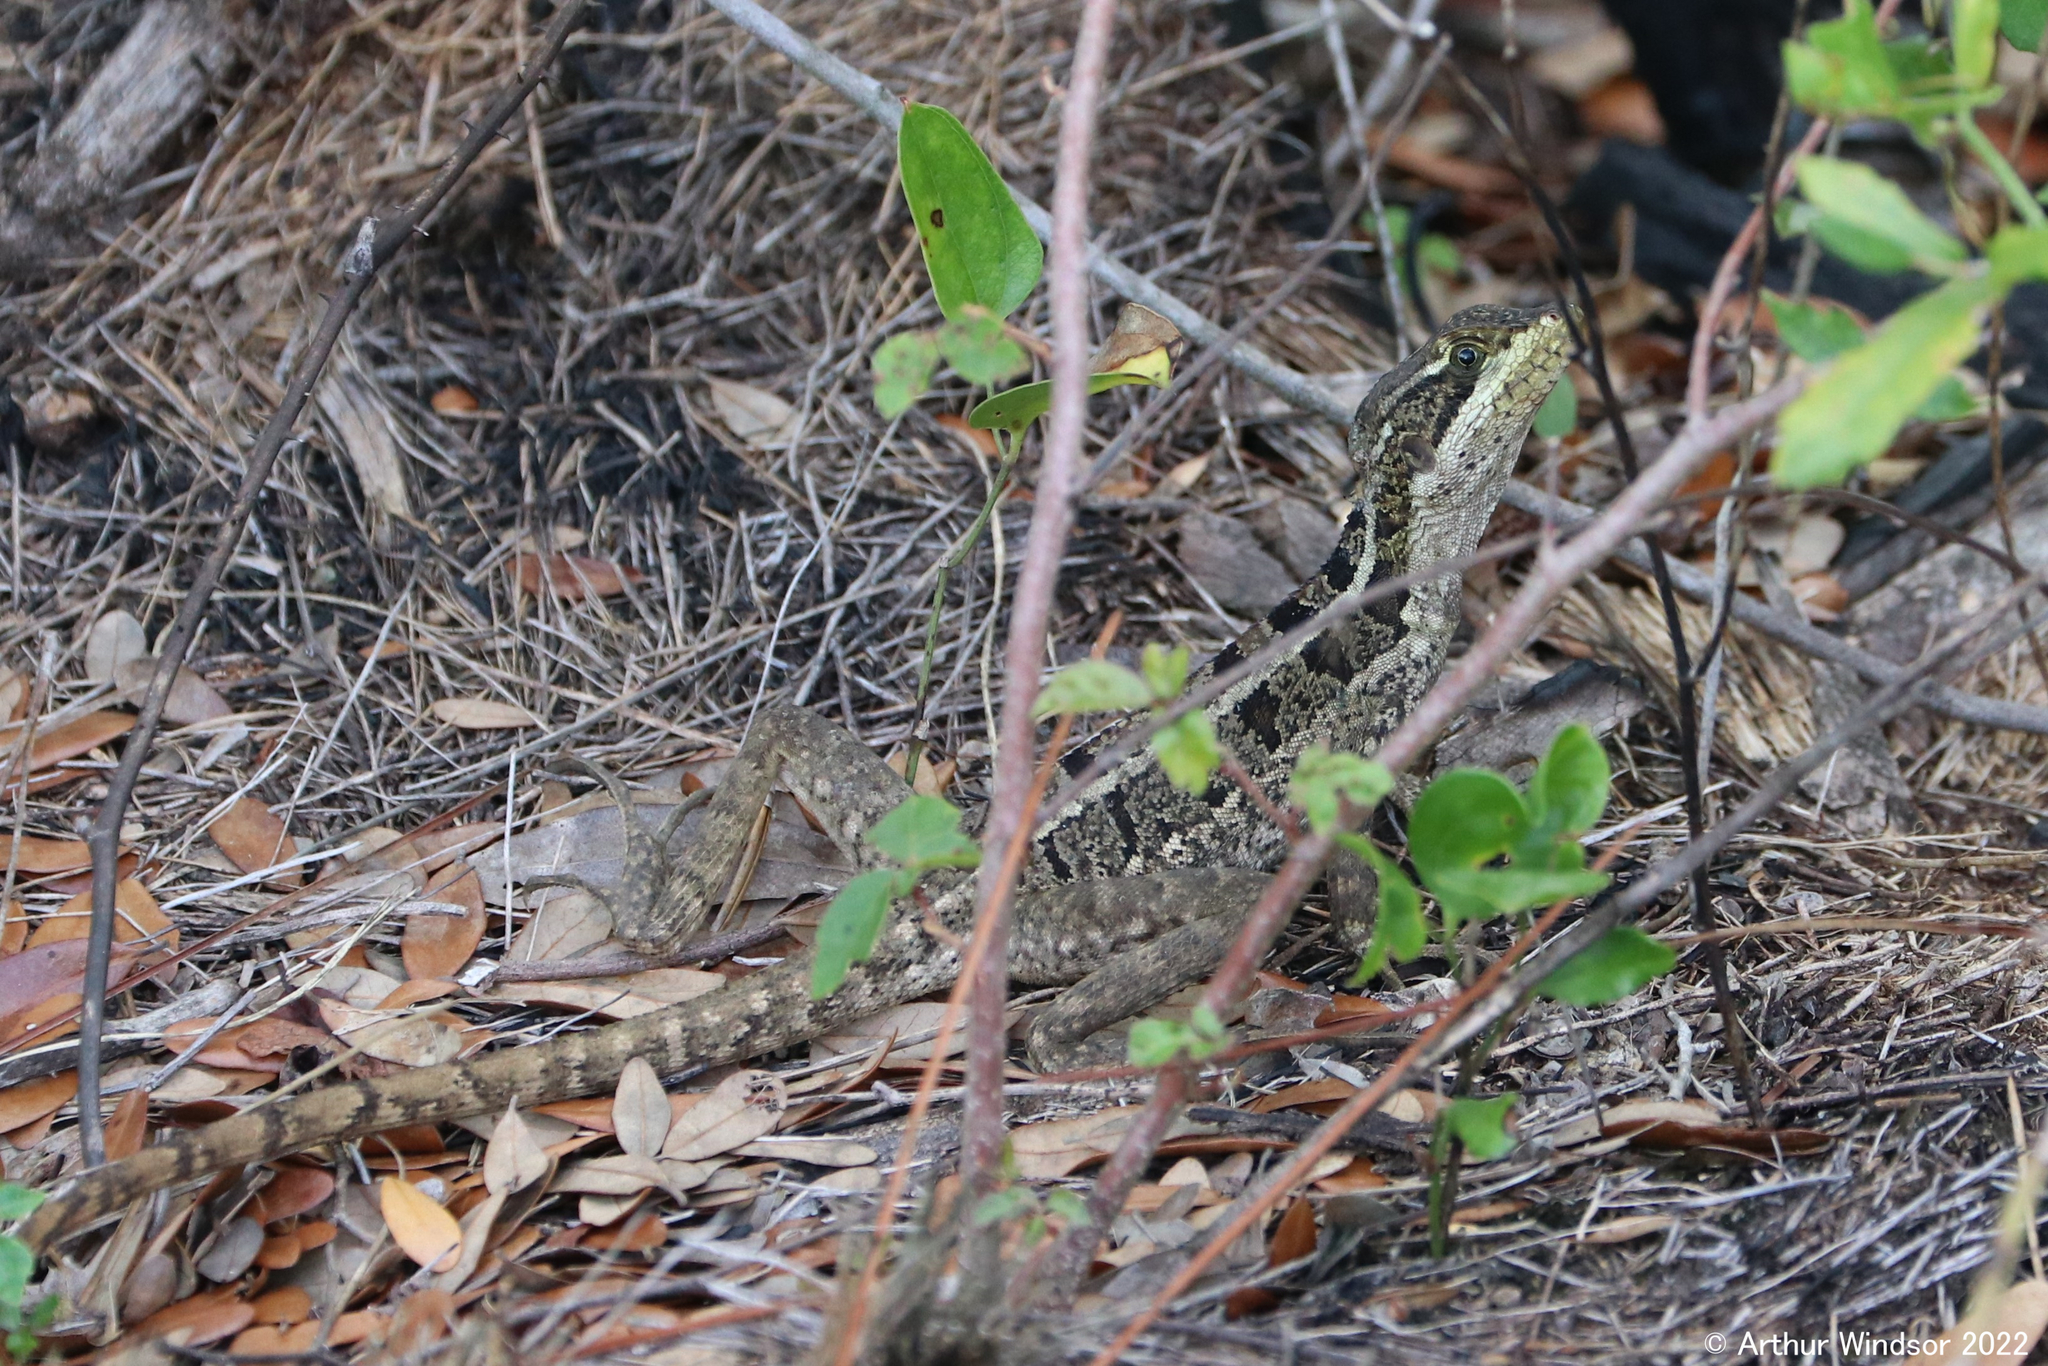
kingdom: Animalia
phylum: Chordata
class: Squamata
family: Corytophanidae
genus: Basiliscus
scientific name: Basiliscus vittatus
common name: Brown basilisk
